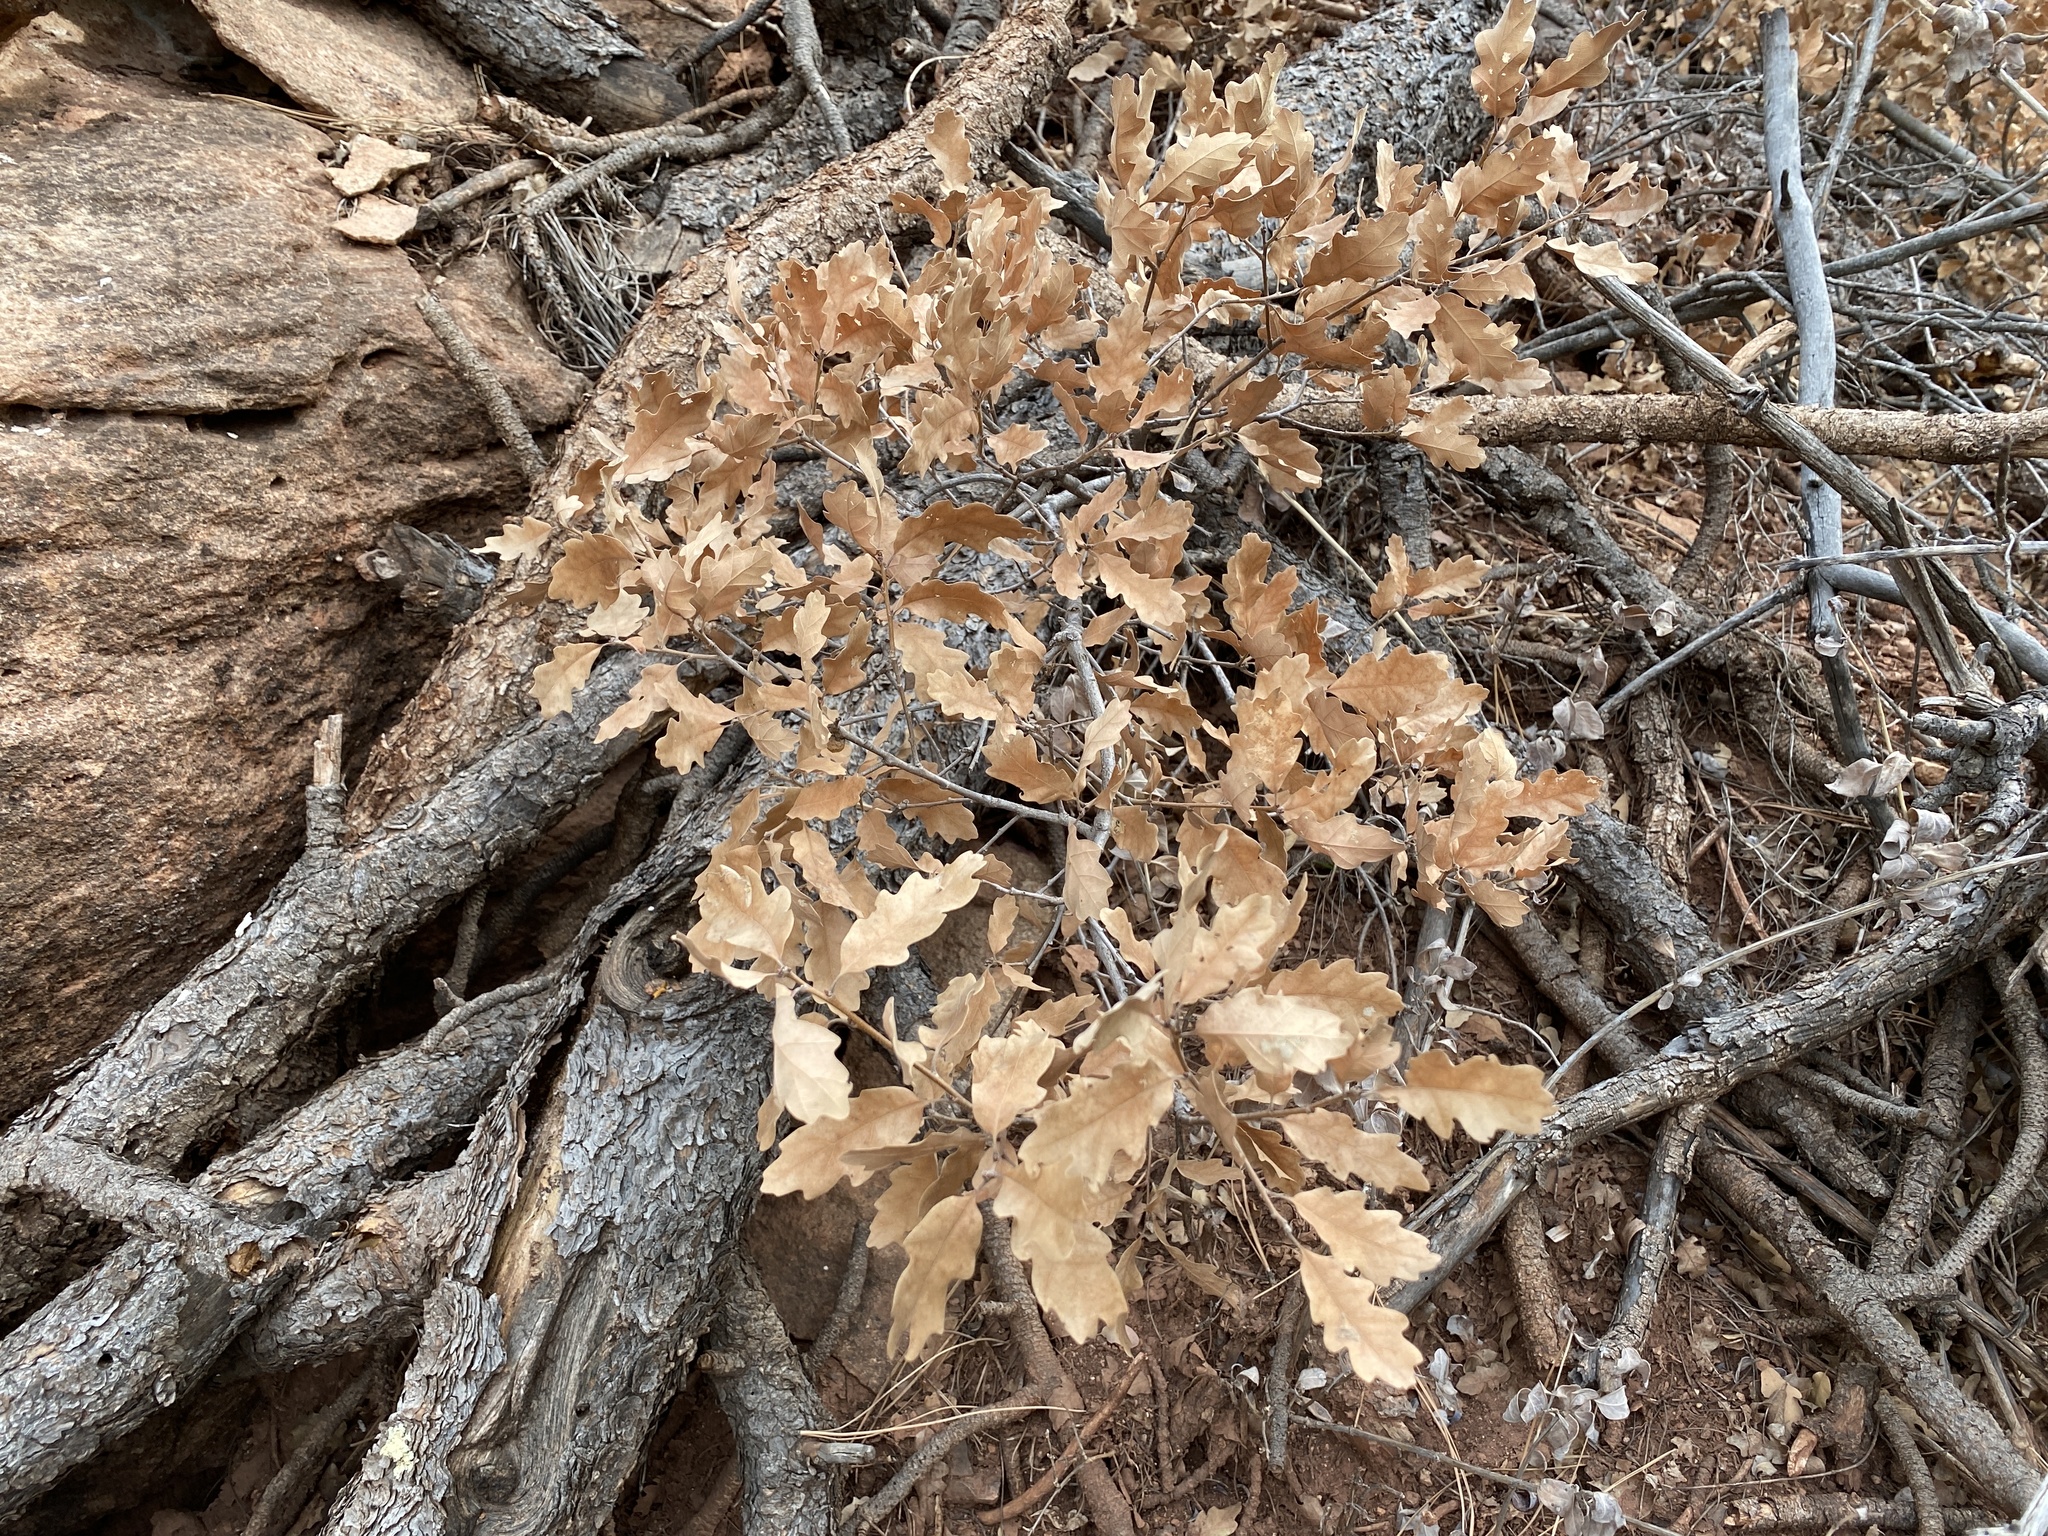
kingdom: Plantae
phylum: Tracheophyta
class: Magnoliopsida
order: Fagales
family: Fagaceae
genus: Quercus
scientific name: Quercus undulata
